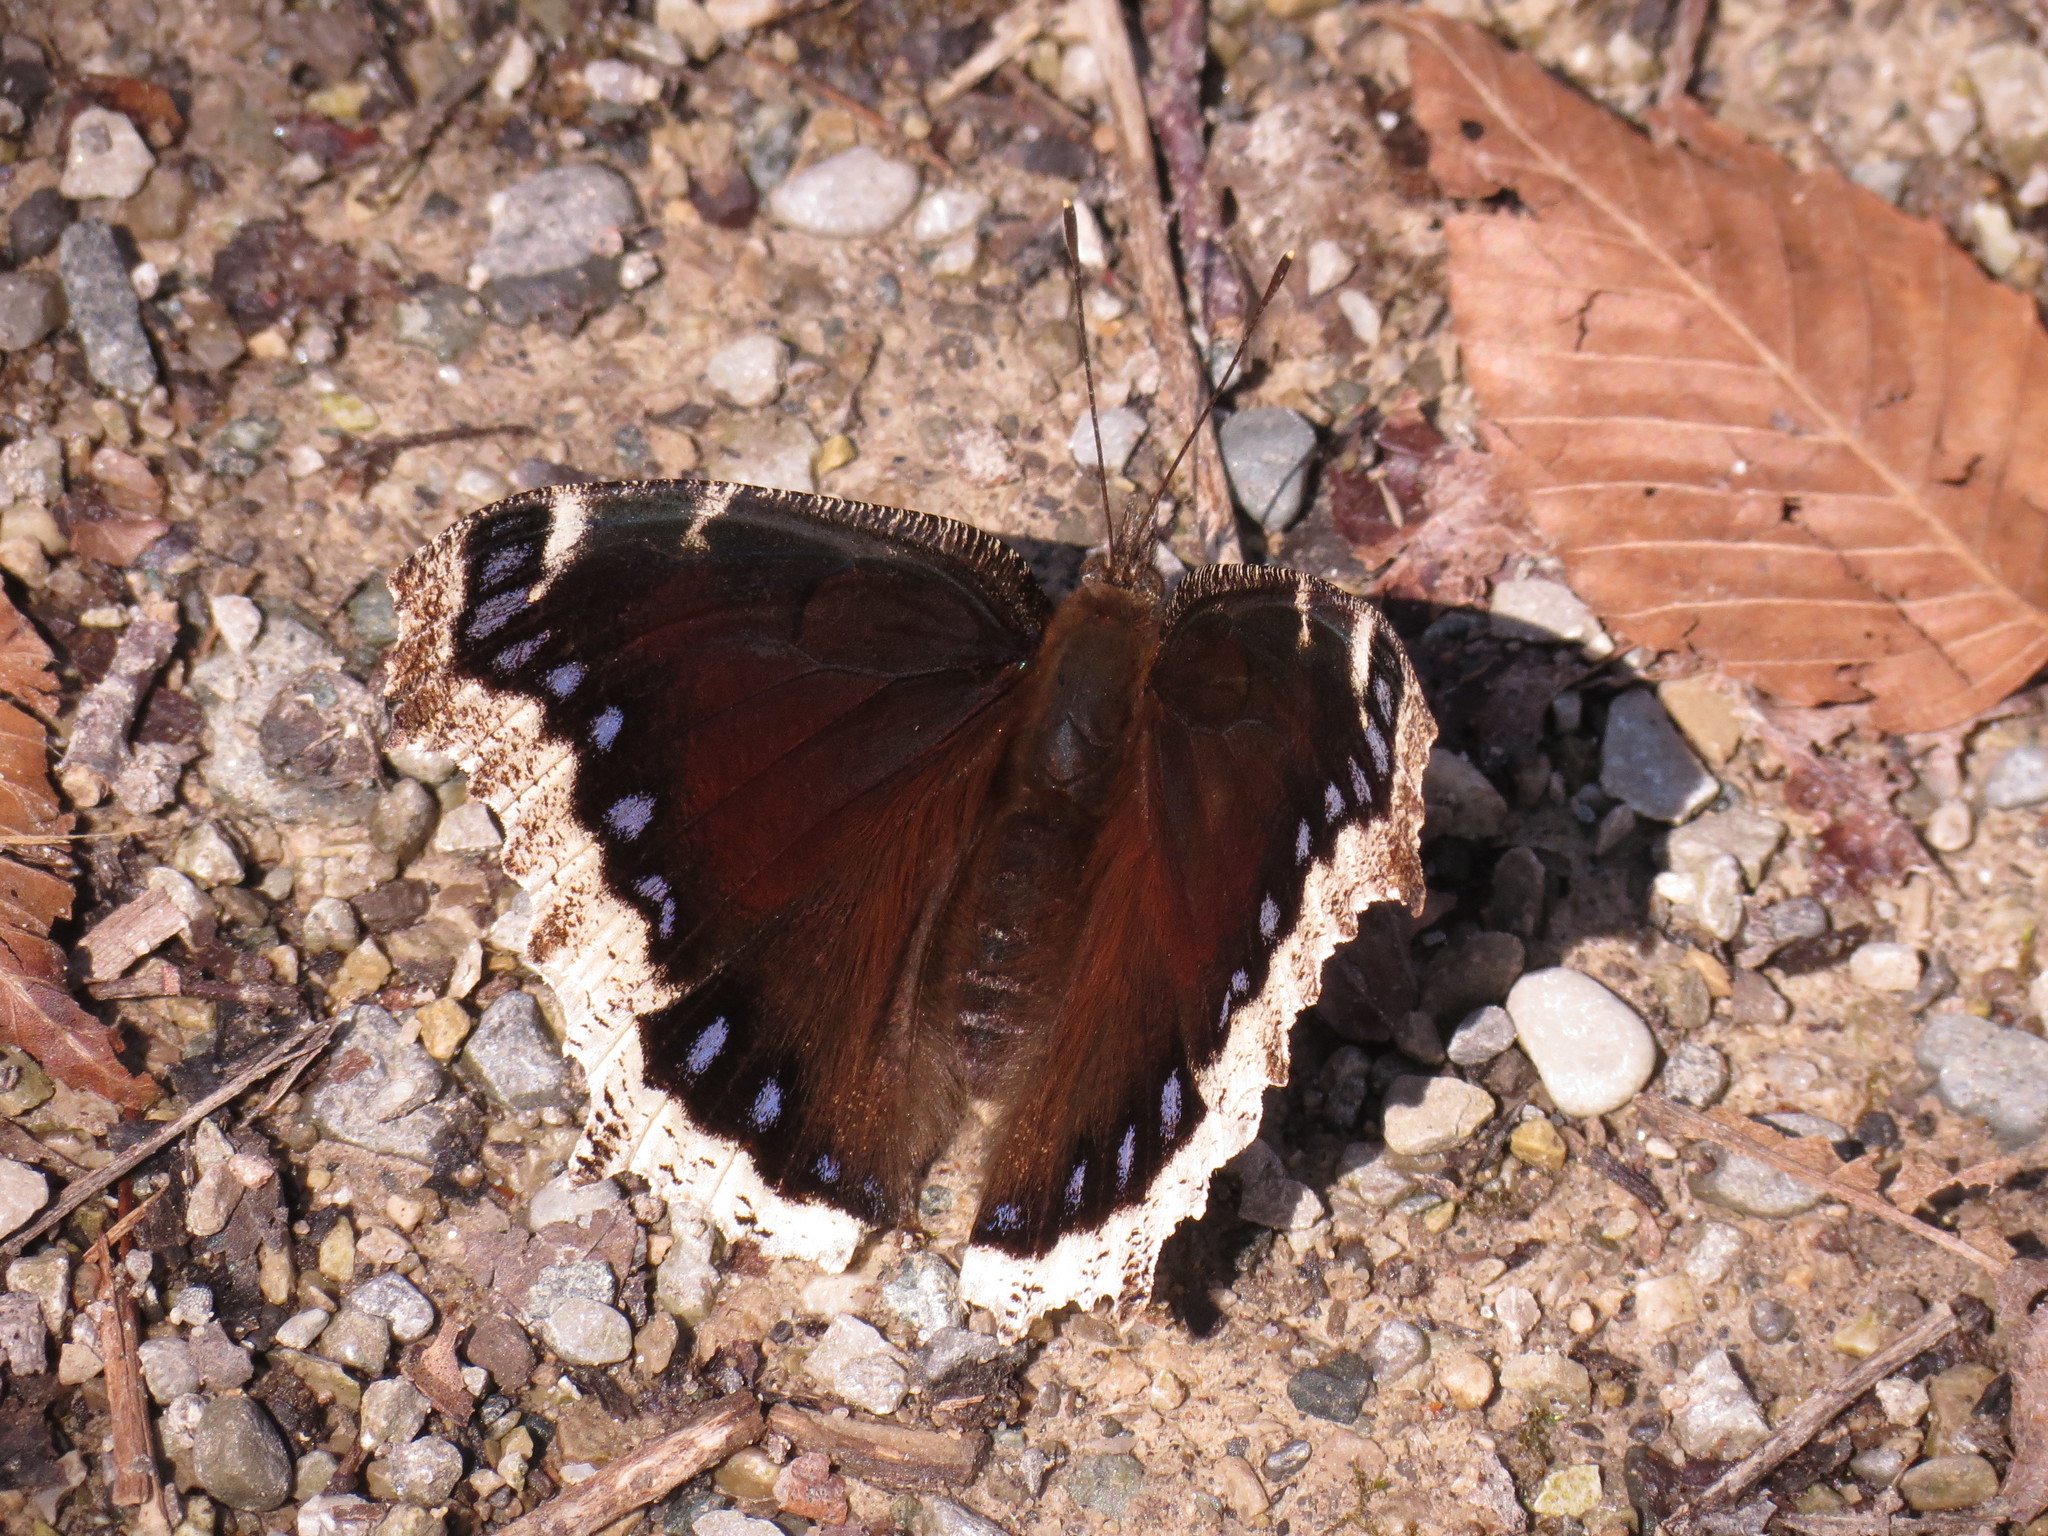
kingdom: Animalia
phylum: Arthropoda
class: Insecta
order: Lepidoptera
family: Nymphalidae
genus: Nymphalis
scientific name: Nymphalis antiopa
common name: Camberwell beauty
